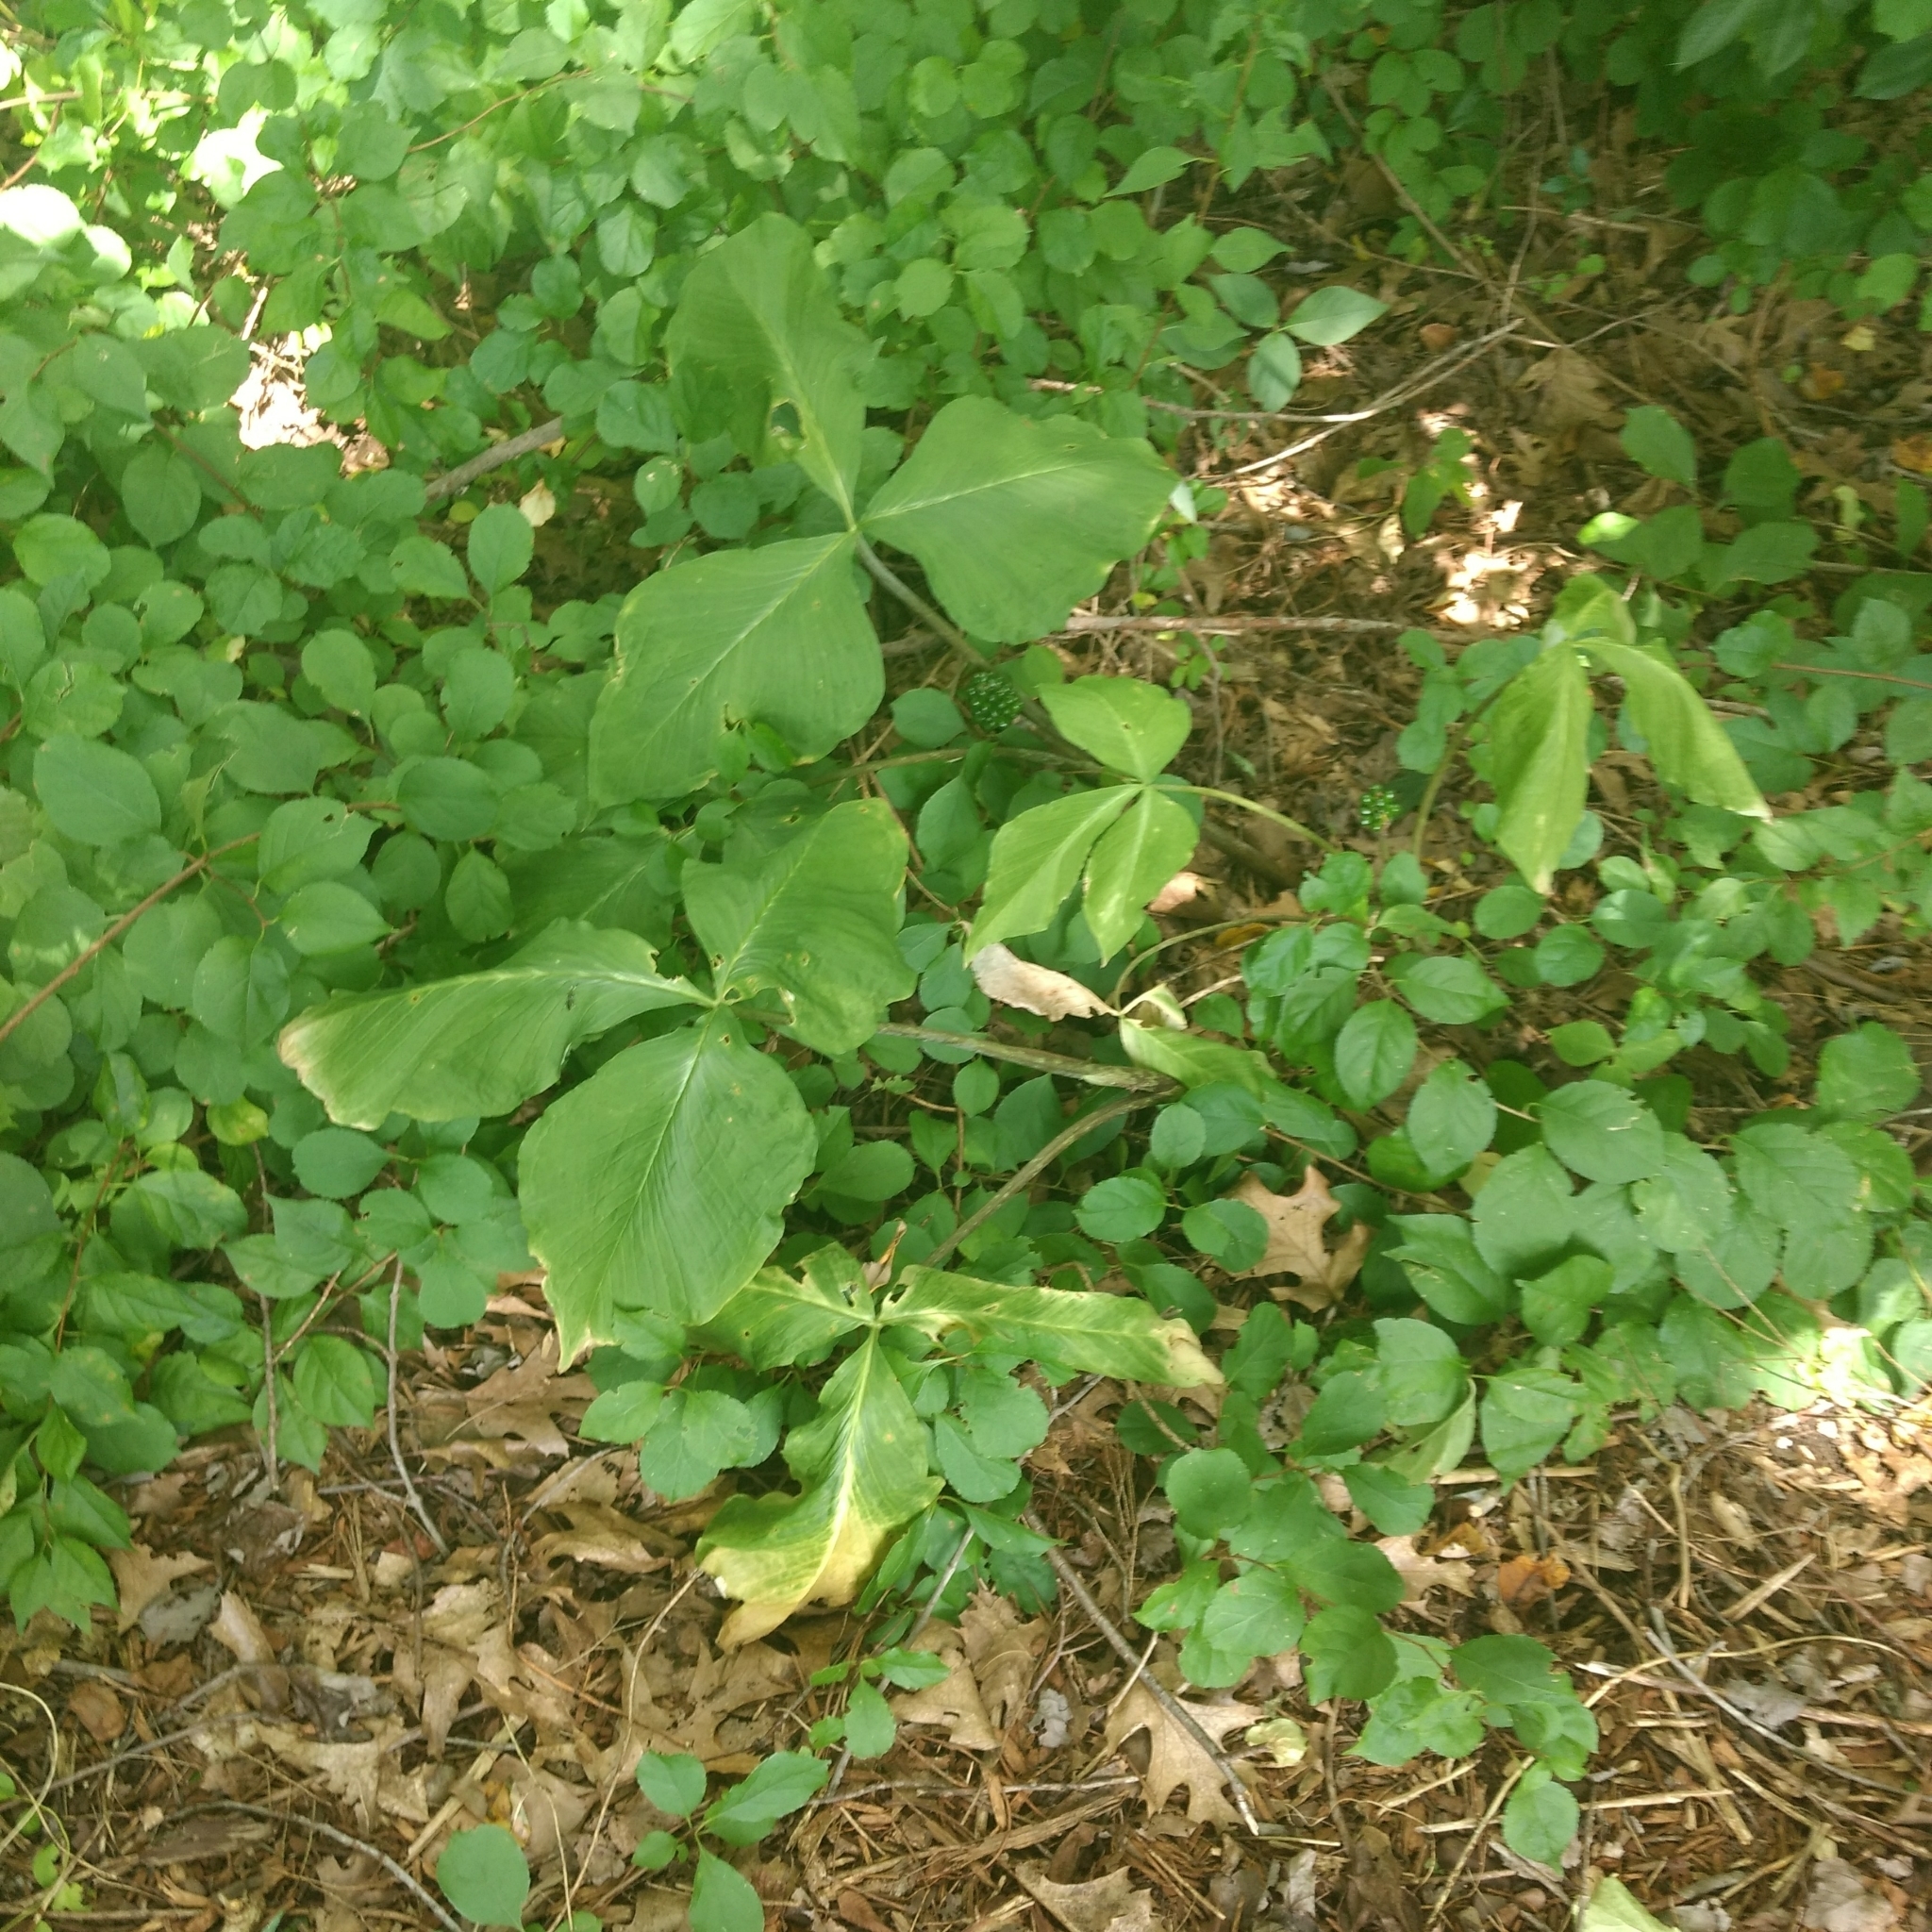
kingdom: Plantae
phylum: Tracheophyta
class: Liliopsida
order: Alismatales
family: Araceae
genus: Arisaema
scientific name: Arisaema triphyllum
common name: Jack-in-the-pulpit
